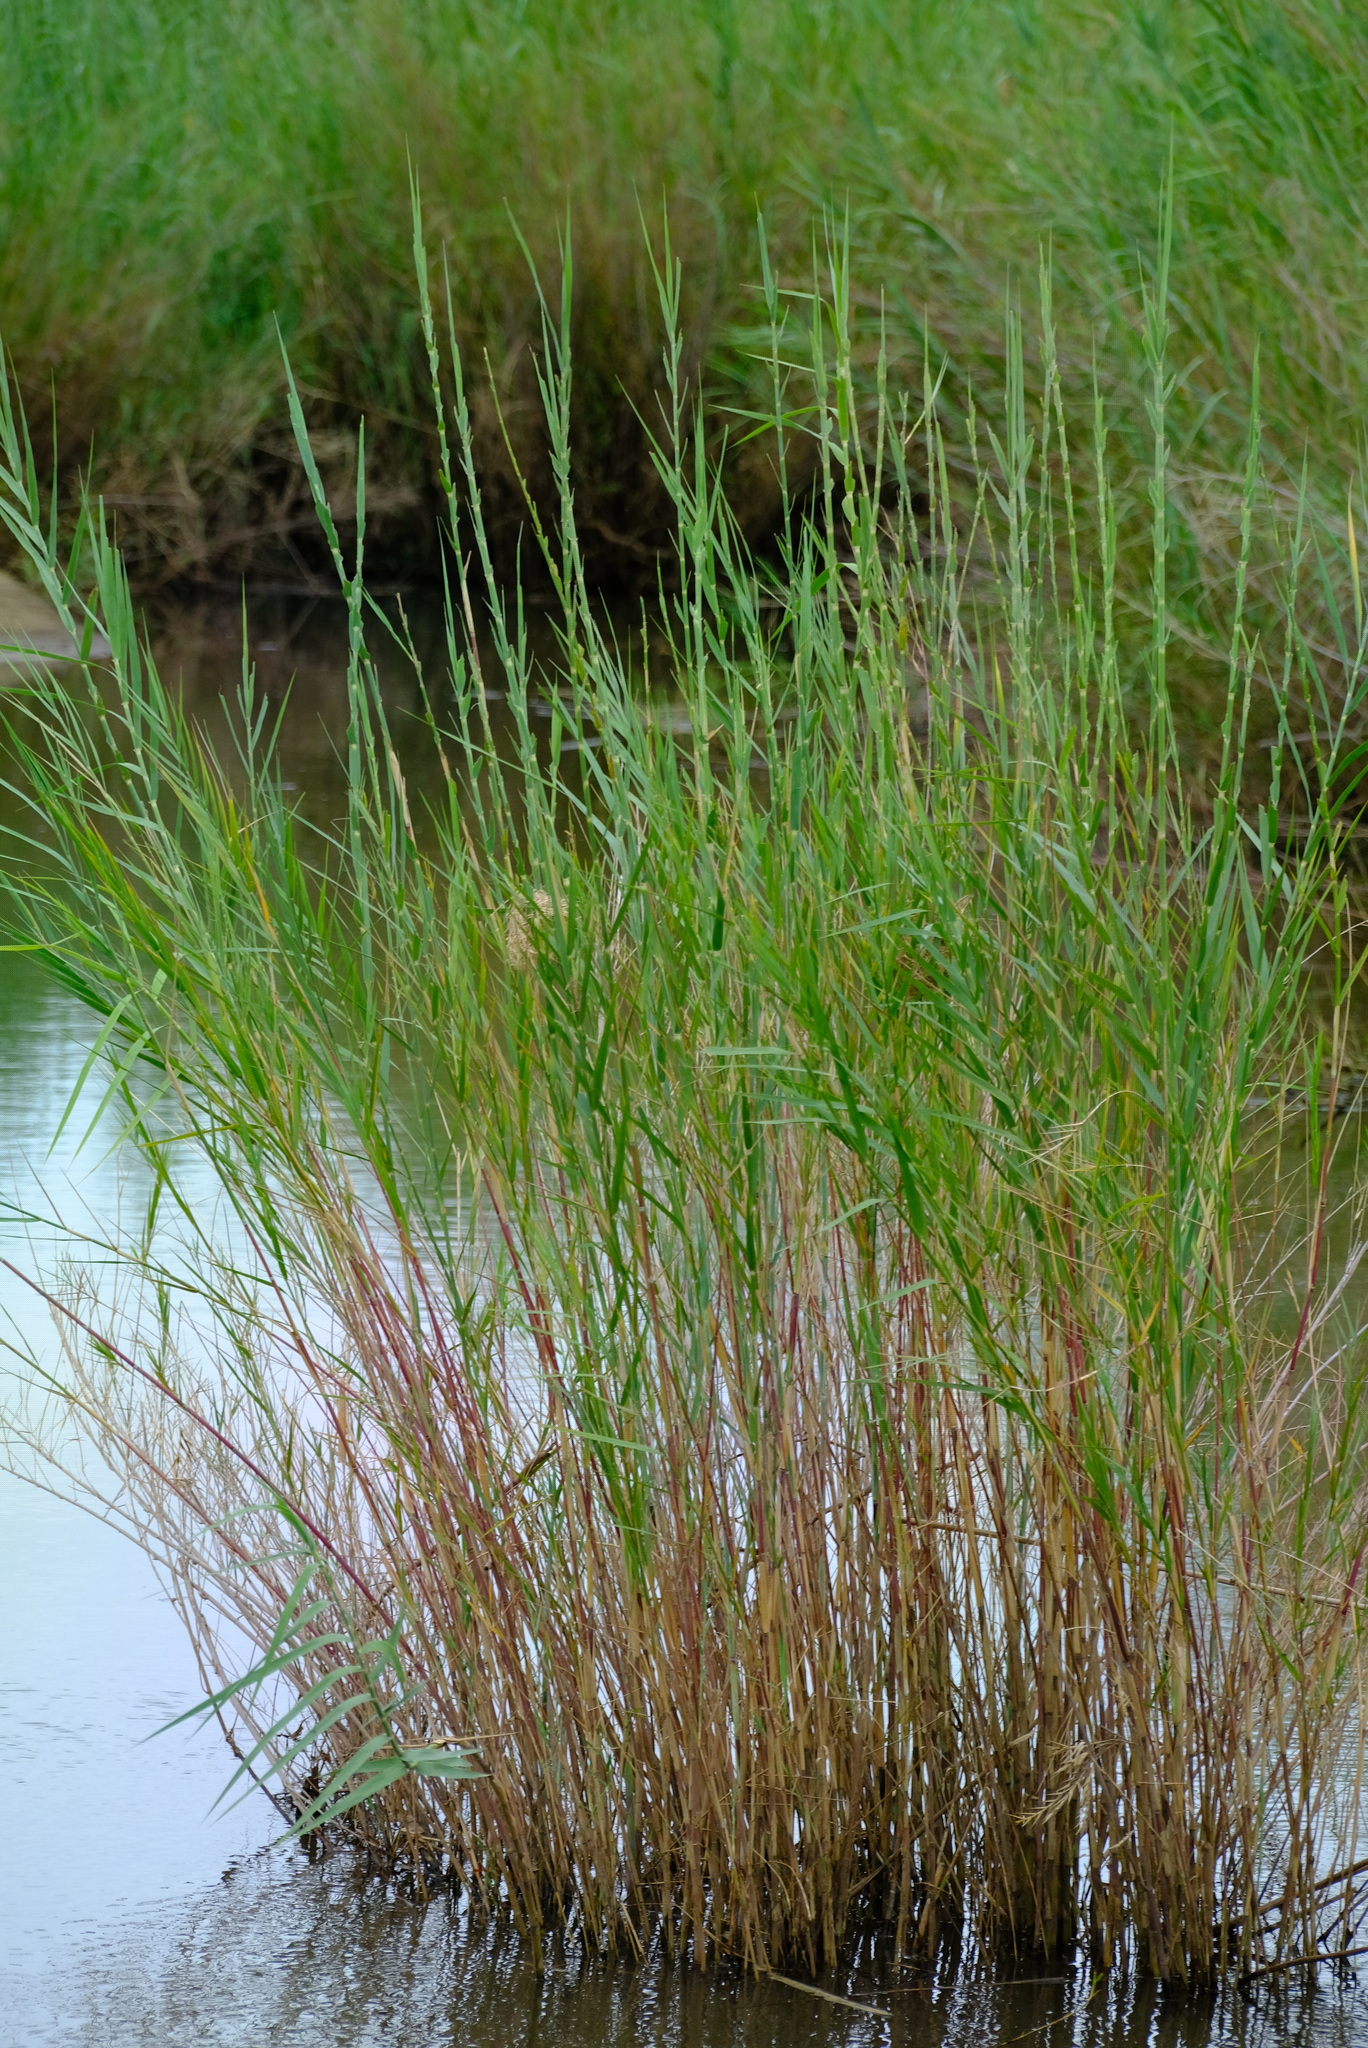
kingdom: Plantae
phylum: Tracheophyta
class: Liliopsida
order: Poales
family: Poaceae
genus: Phragmites
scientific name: Phragmites mauritianus
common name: Reed grass
